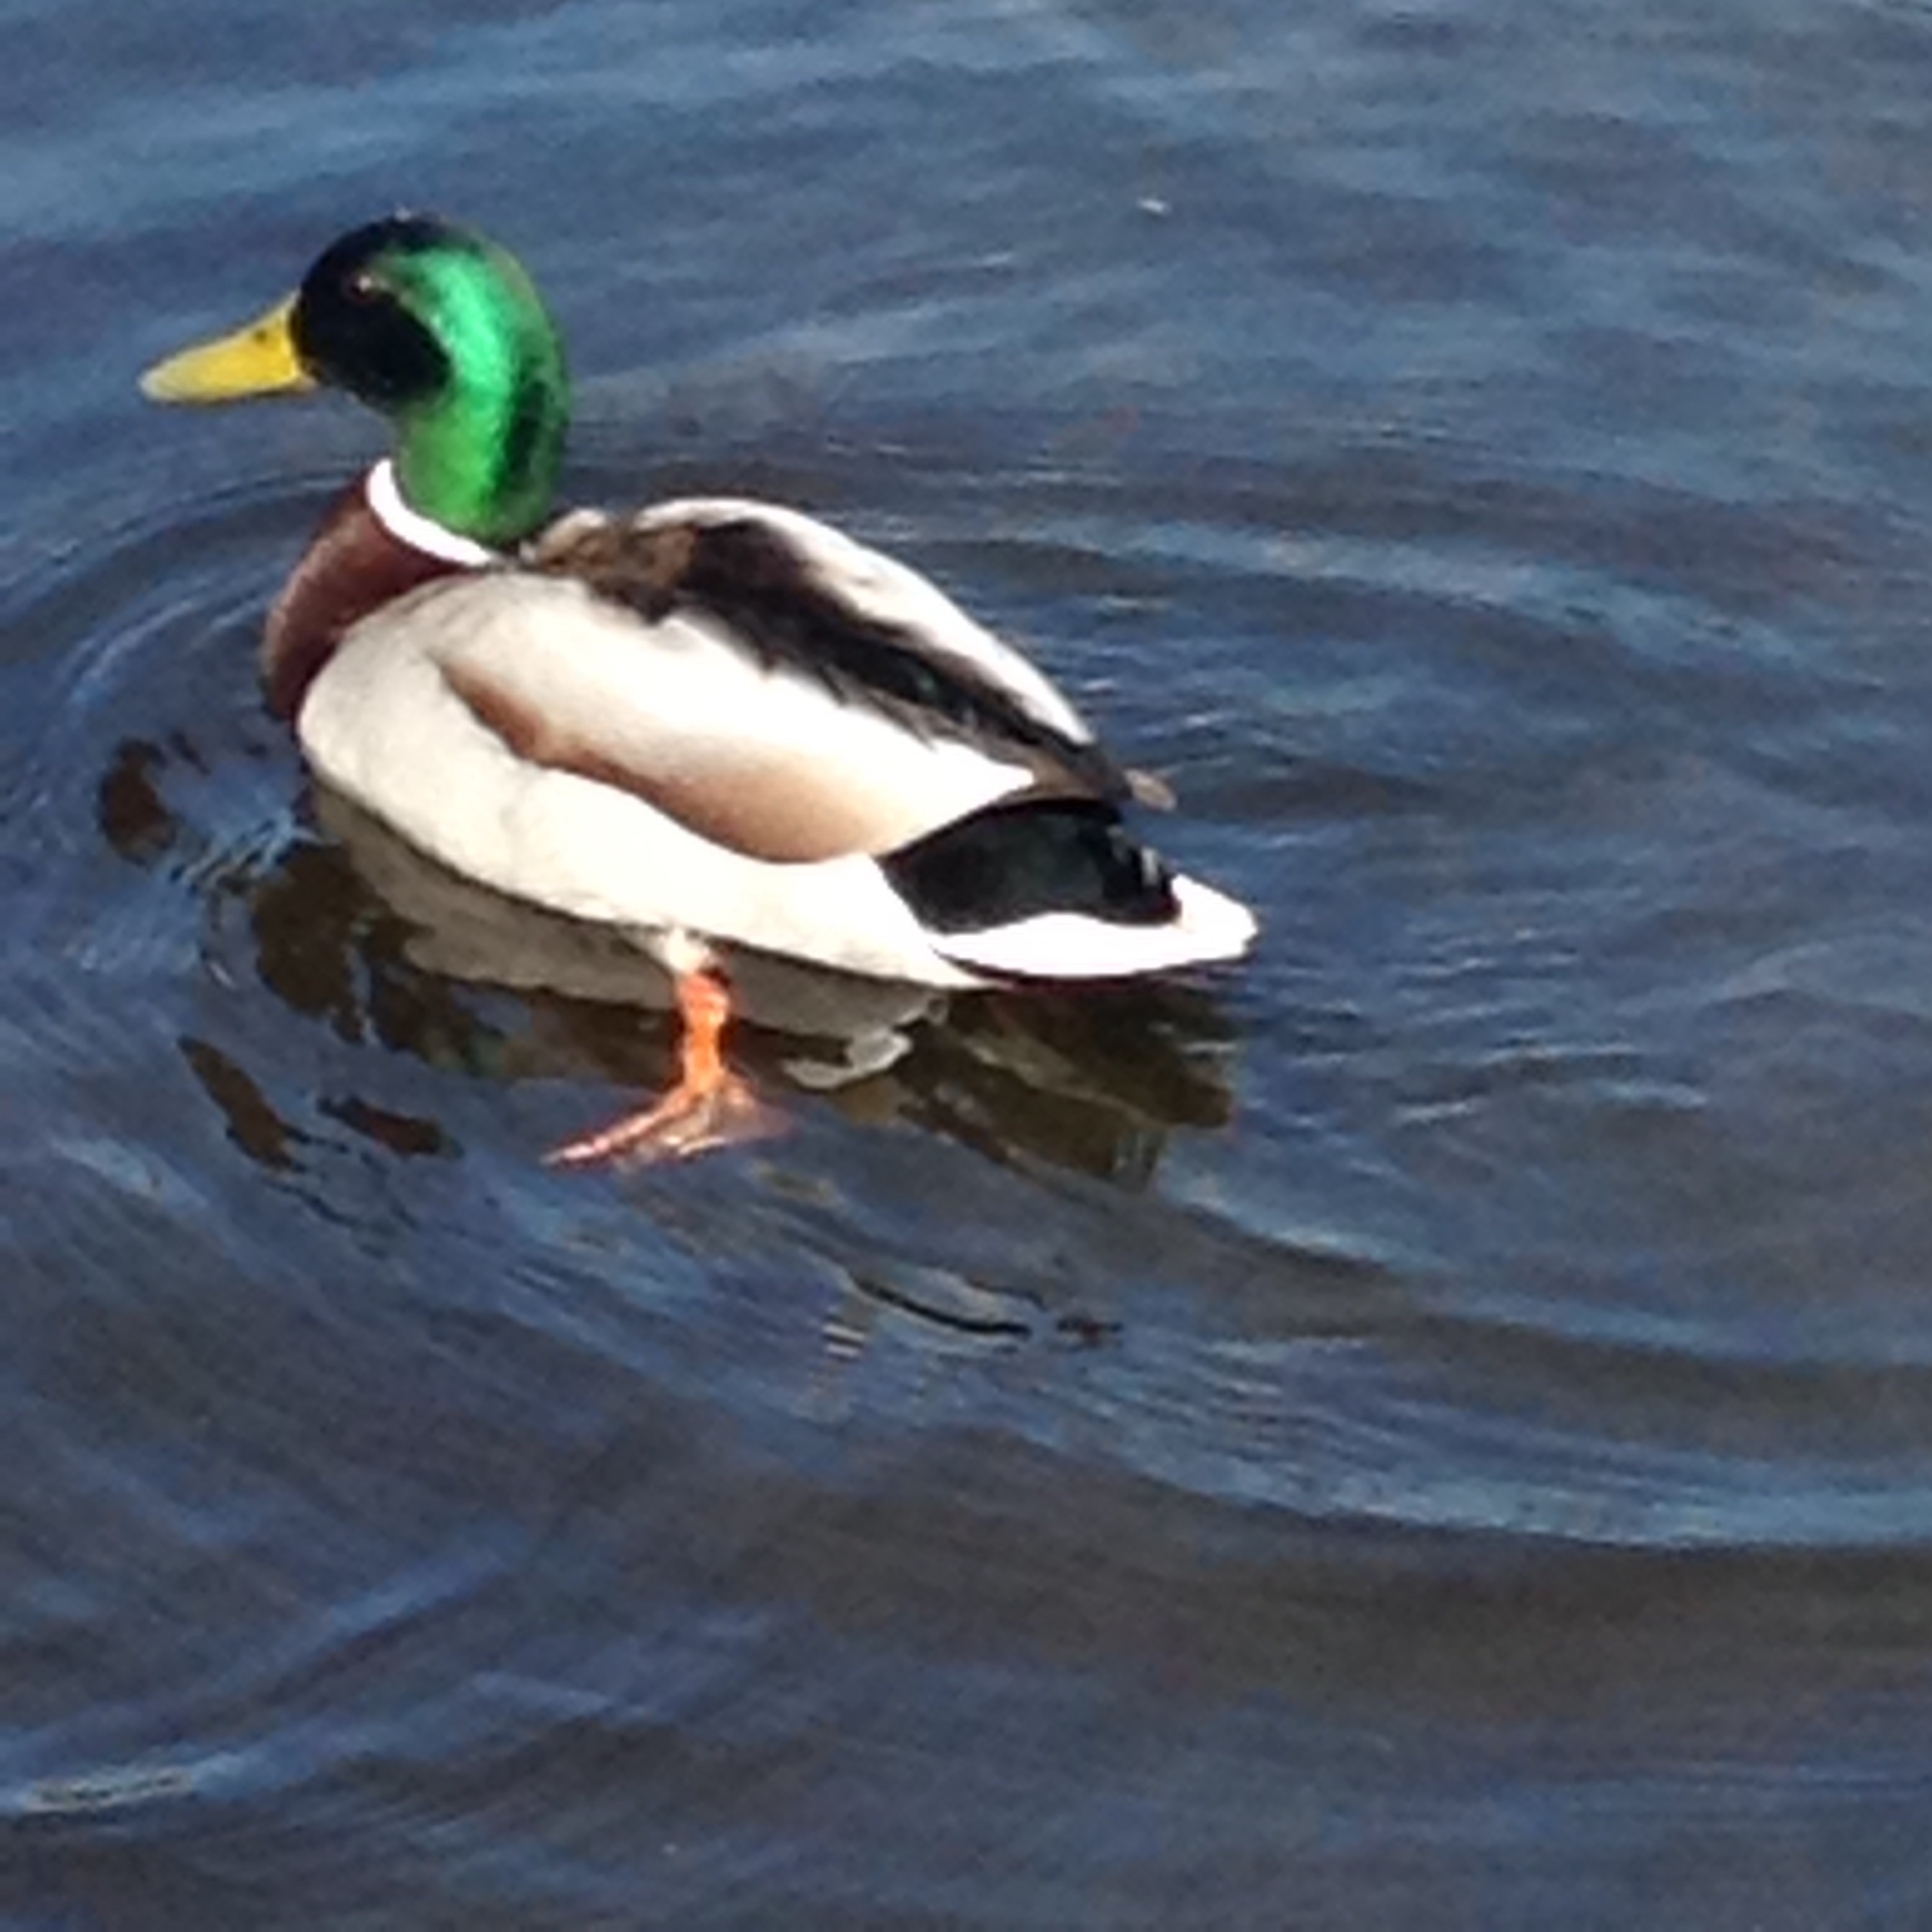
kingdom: Animalia
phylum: Chordata
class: Aves
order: Anseriformes
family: Anatidae
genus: Anas
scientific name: Anas platyrhynchos
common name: Mallard
